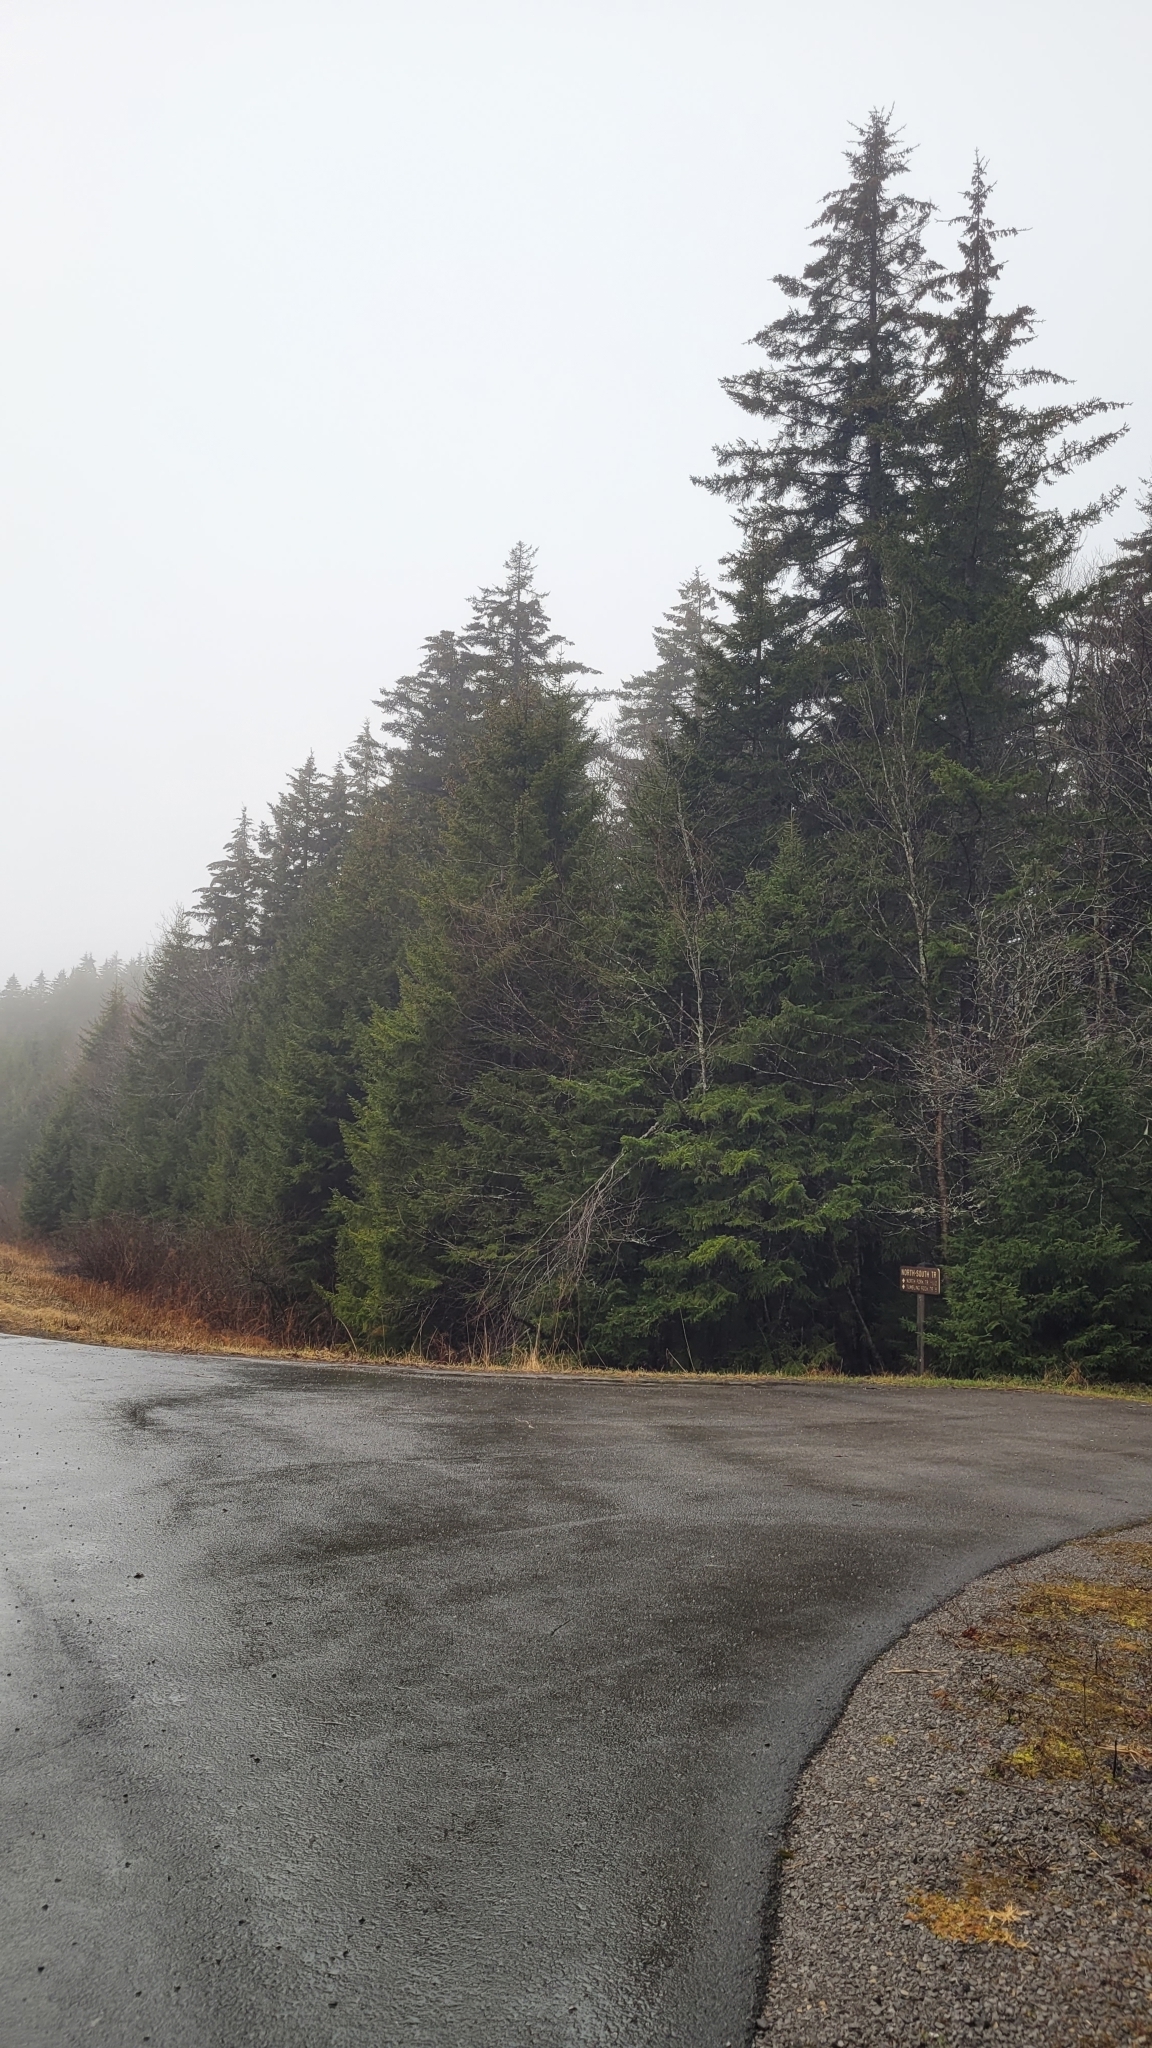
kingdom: Plantae
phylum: Tracheophyta
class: Pinopsida
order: Pinales
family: Pinaceae
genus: Picea
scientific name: Picea rubens
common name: Red spruce
